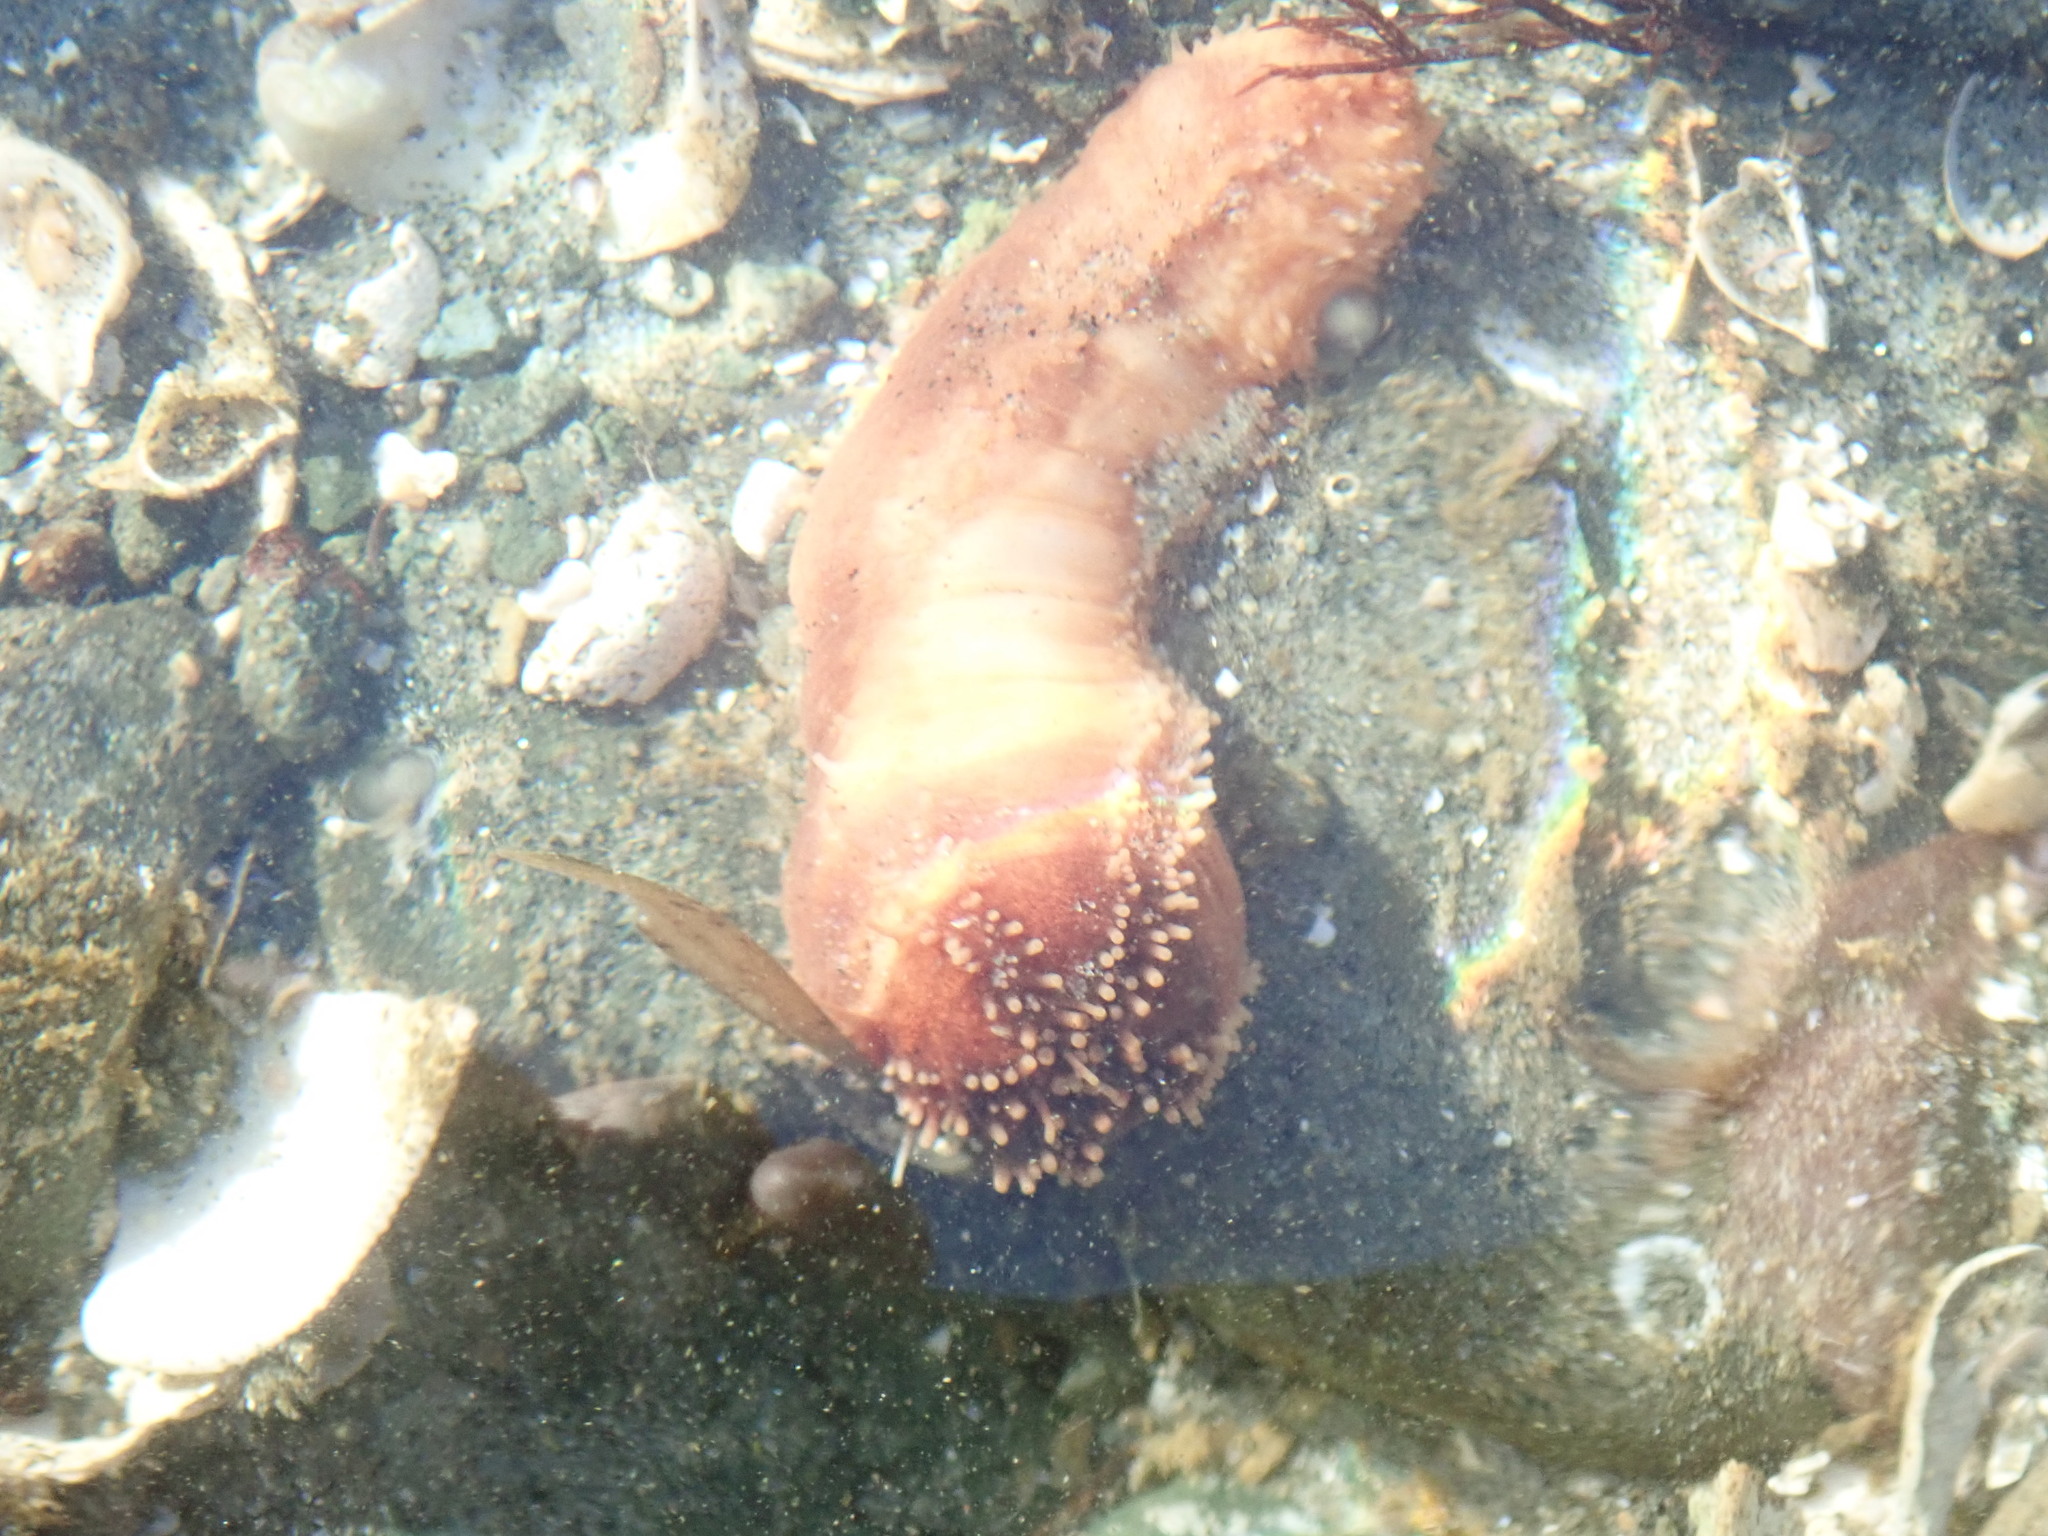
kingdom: Animalia
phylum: Echinodermata
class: Holothuroidea
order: Dendrochirotida
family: Cucumariidae
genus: Cucumaria
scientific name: Cucumaria miniata
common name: Orange sea cucumber
